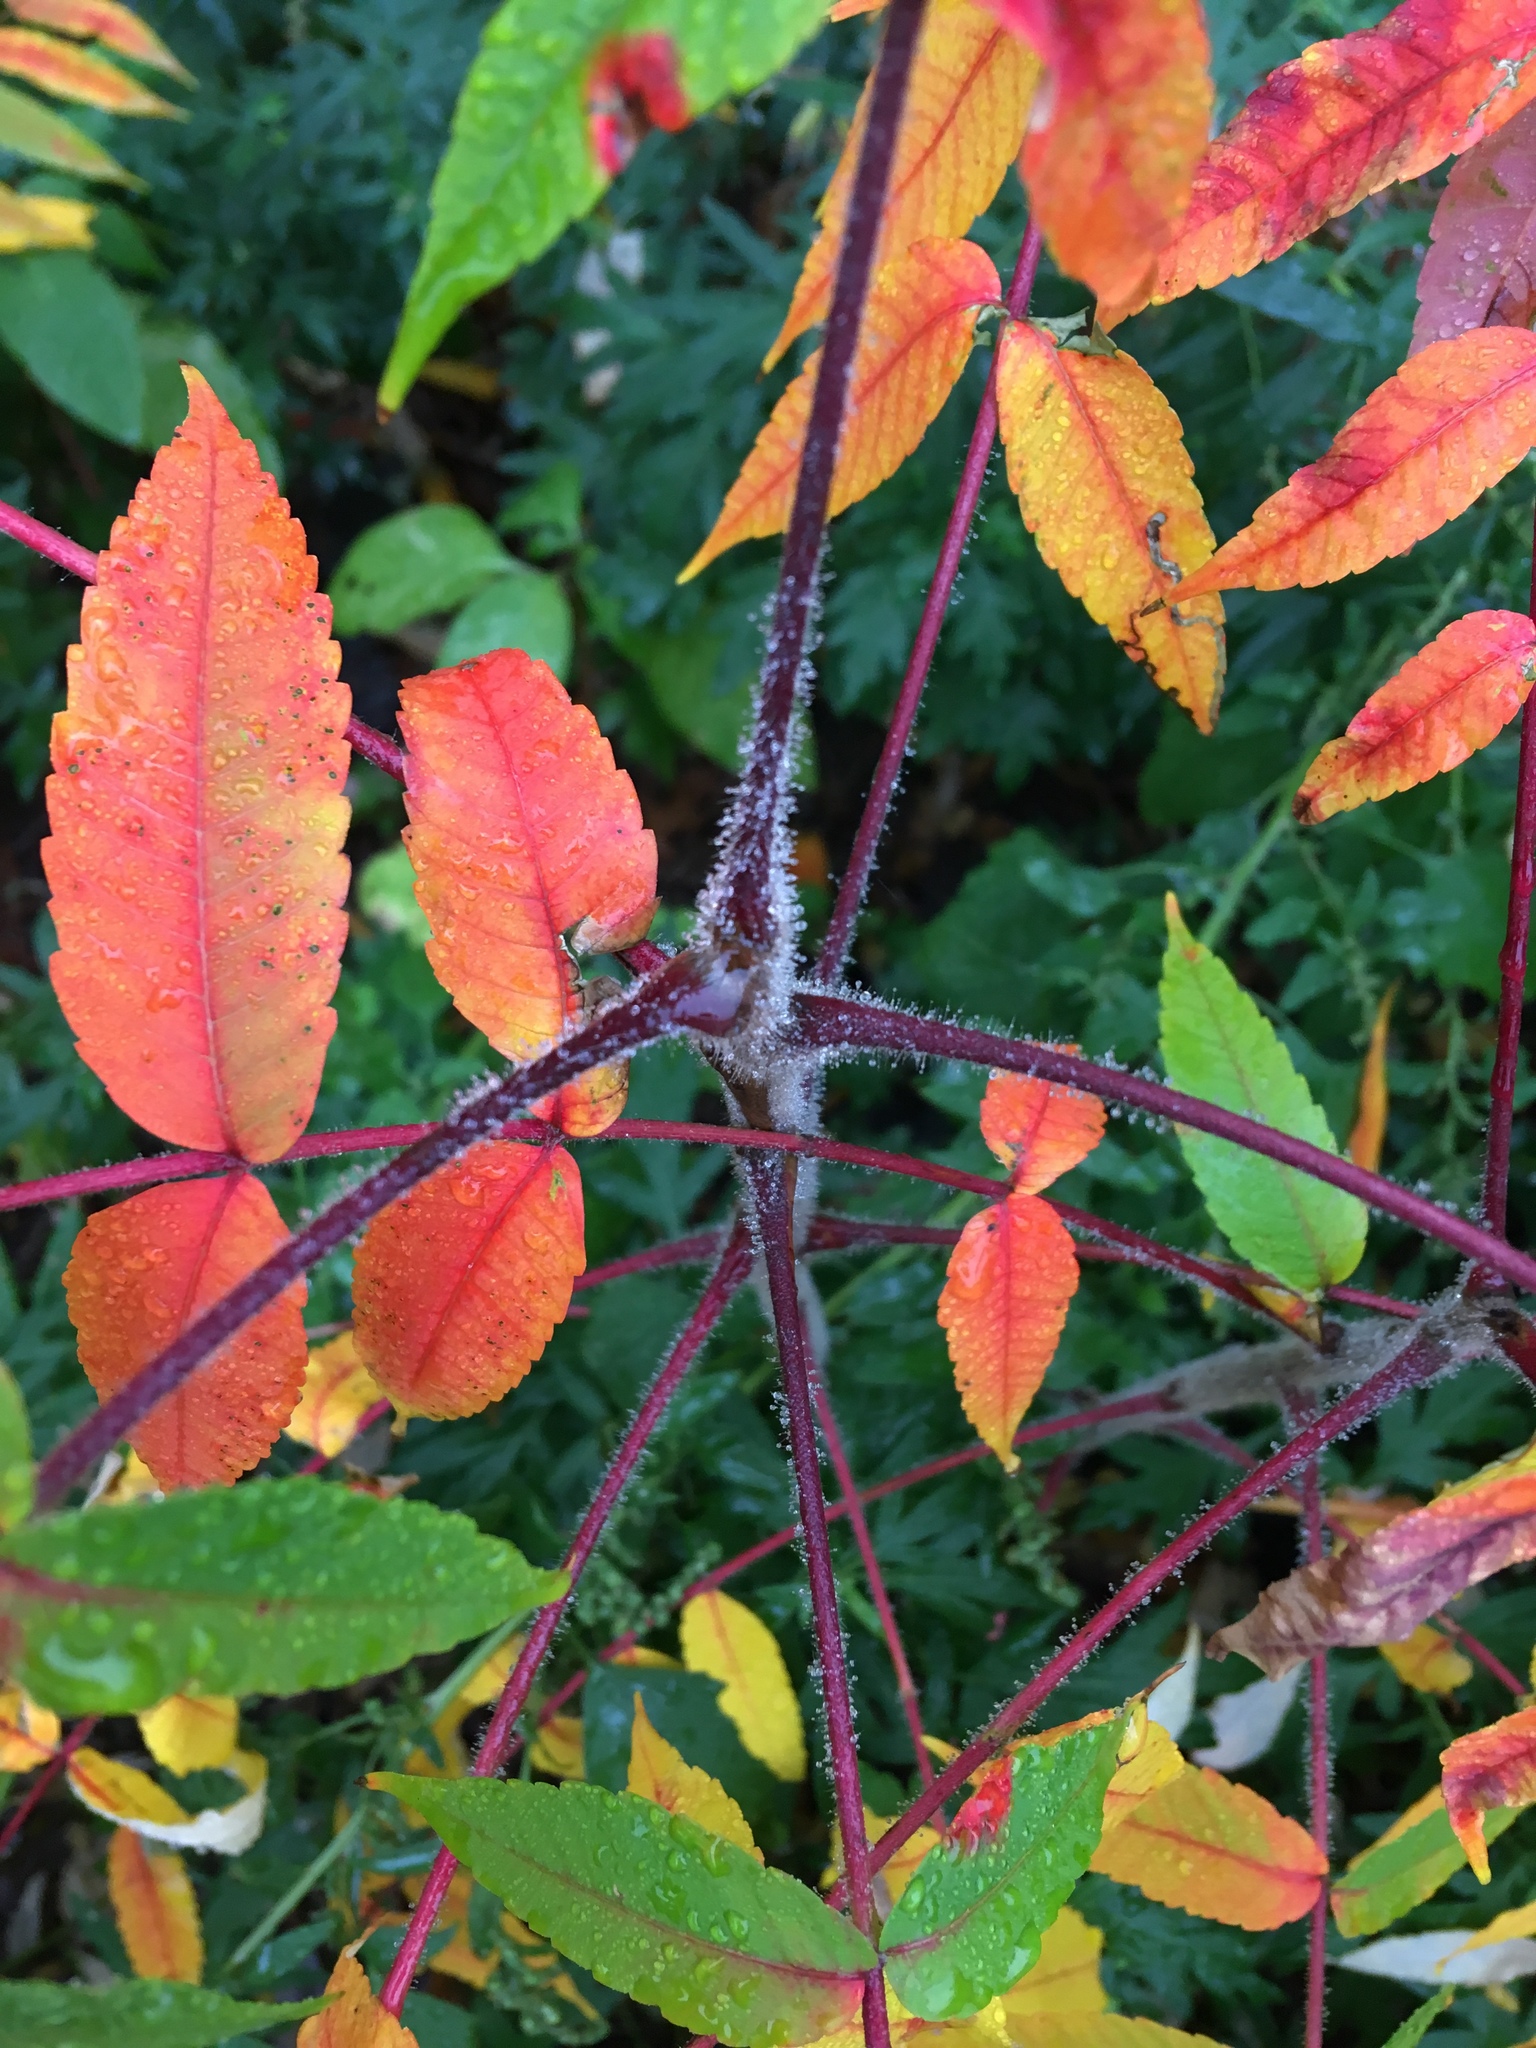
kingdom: Plantae
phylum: Tracheophyta
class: Magnoliopsida
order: Sapindales
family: Anacardiaceae
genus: Rhus
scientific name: Rhus typhina
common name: Staghorn sumac
